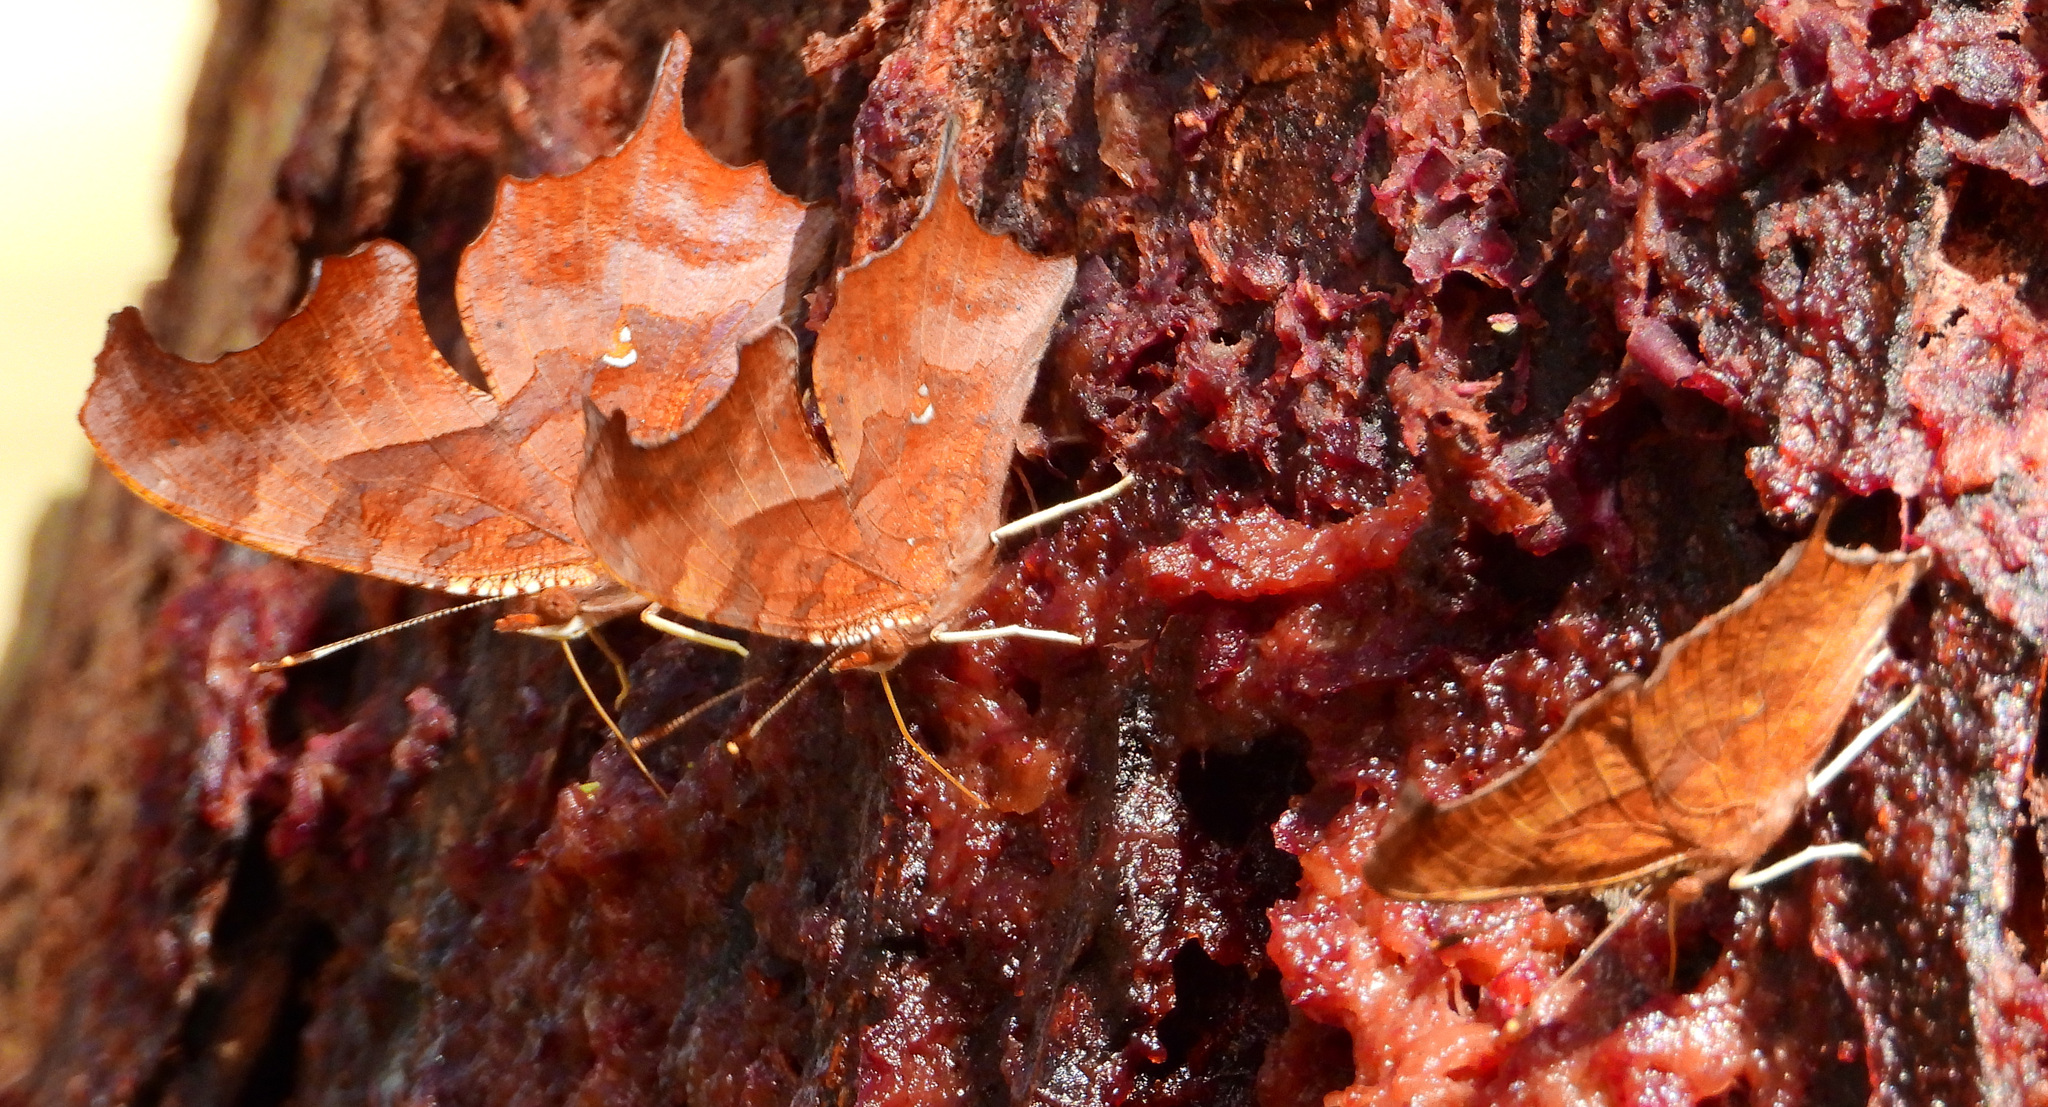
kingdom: Animalia
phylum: Arthropoda
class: Insecta
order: Lepidoptera
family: Nymphalidae
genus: Polygonia
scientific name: Polygonia interrogationis
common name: Question mark
